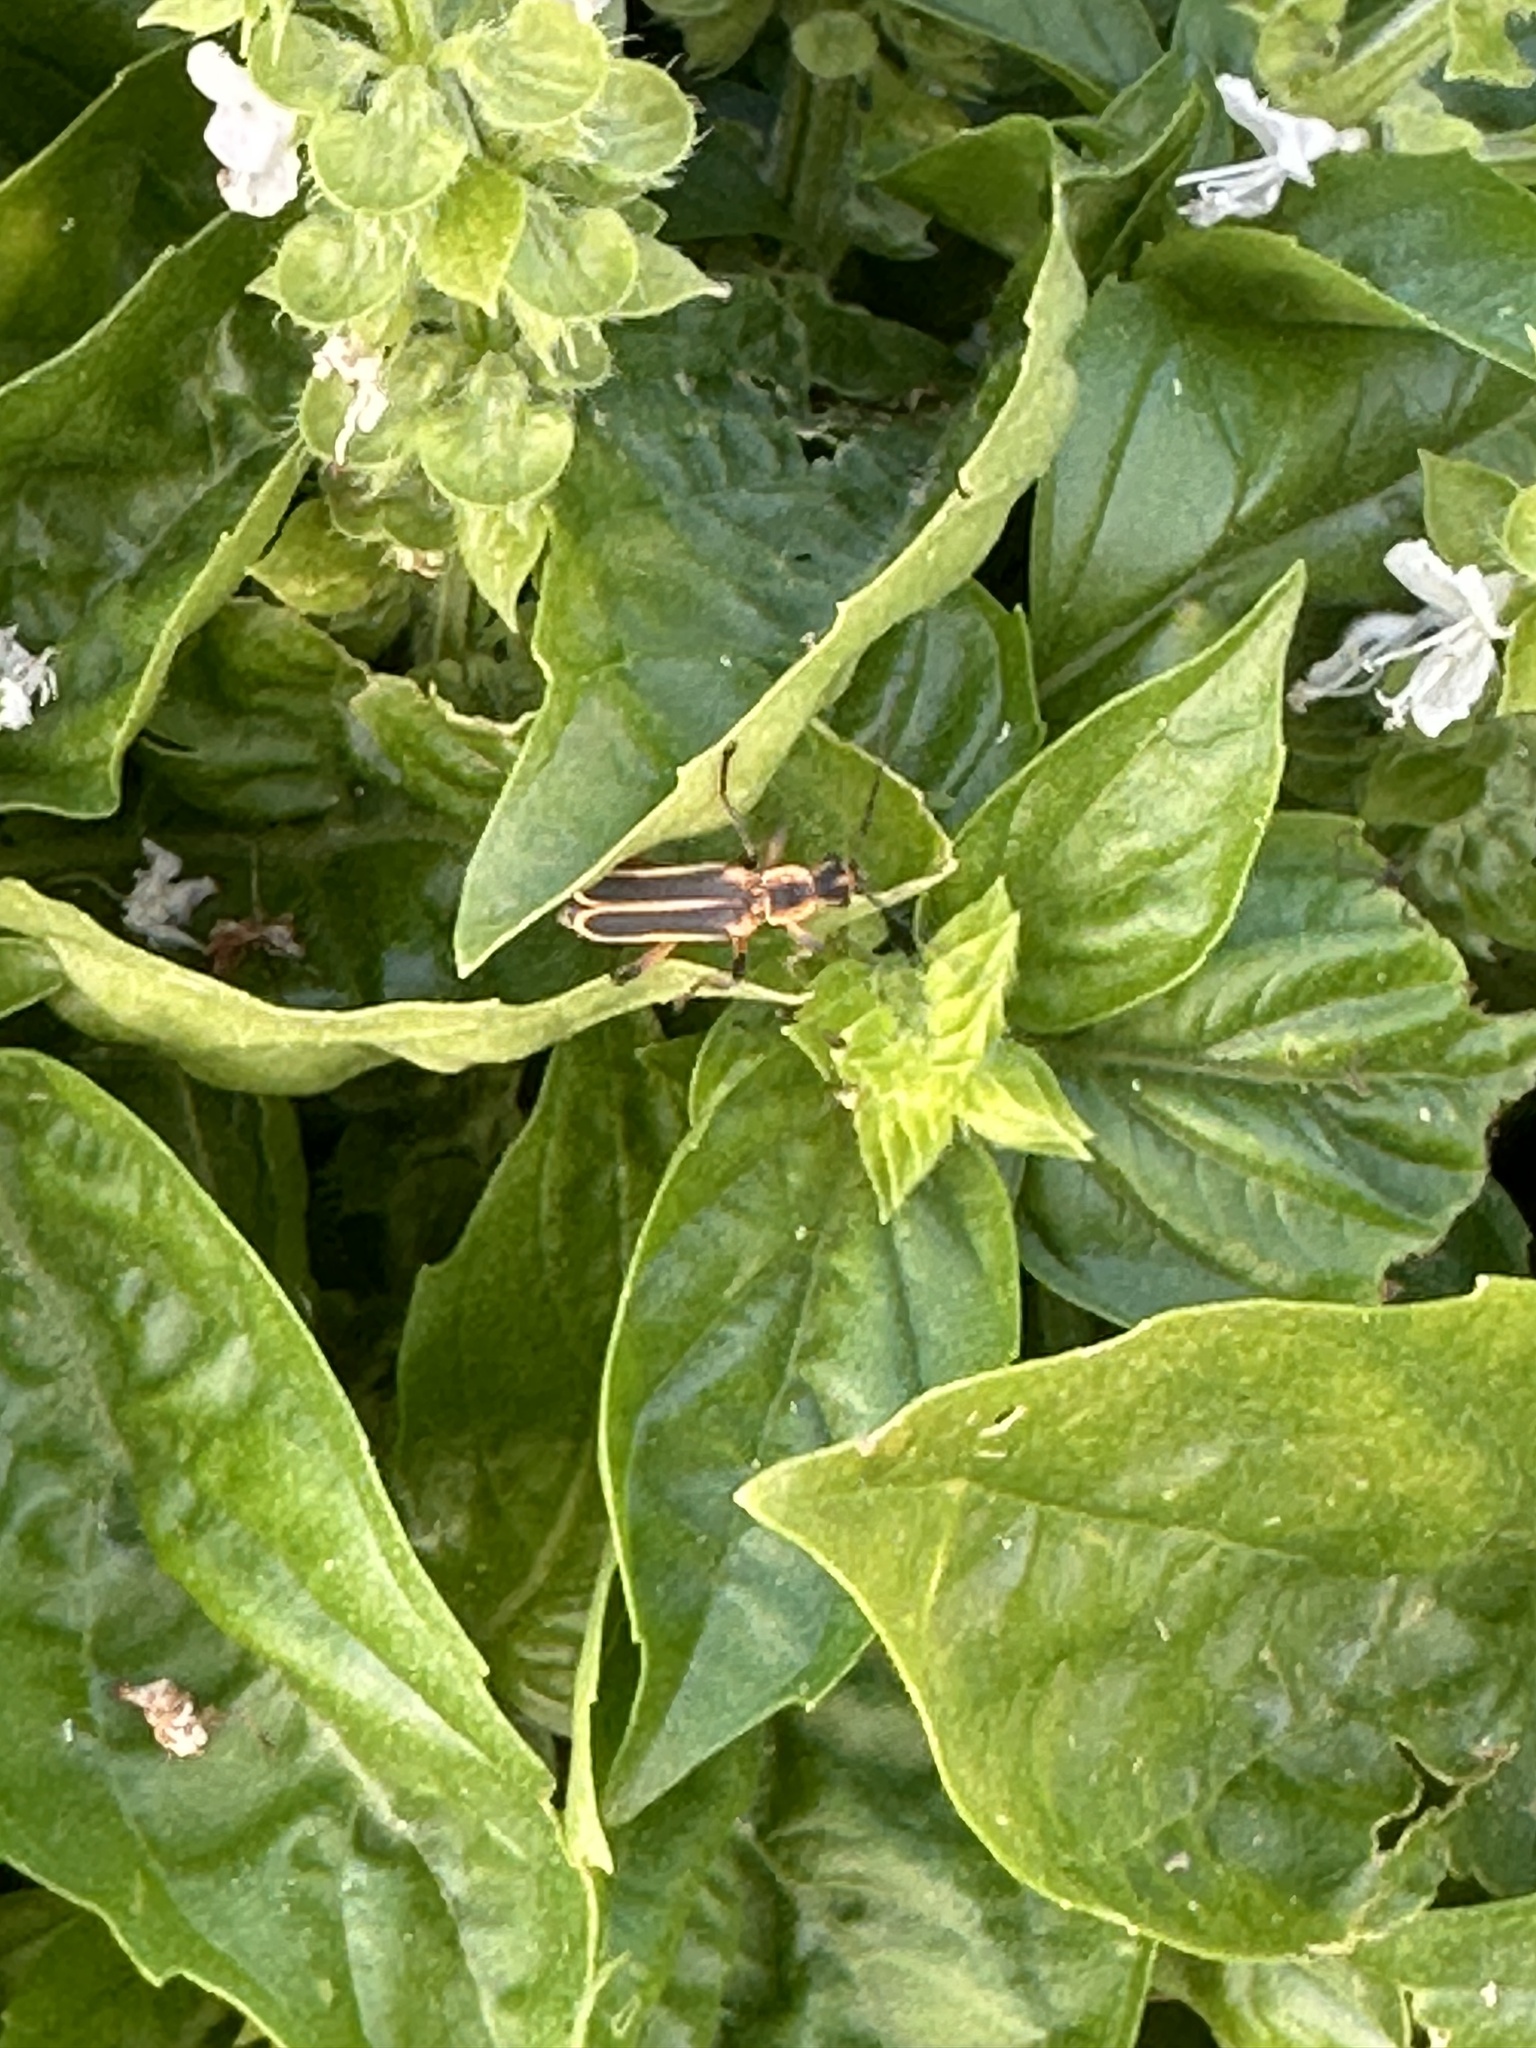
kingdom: Animalia
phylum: Arthropoda
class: Insecta
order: Coleoptera
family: Cantharidae
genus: Chauliognathus
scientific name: Chauliognathus marginatus
